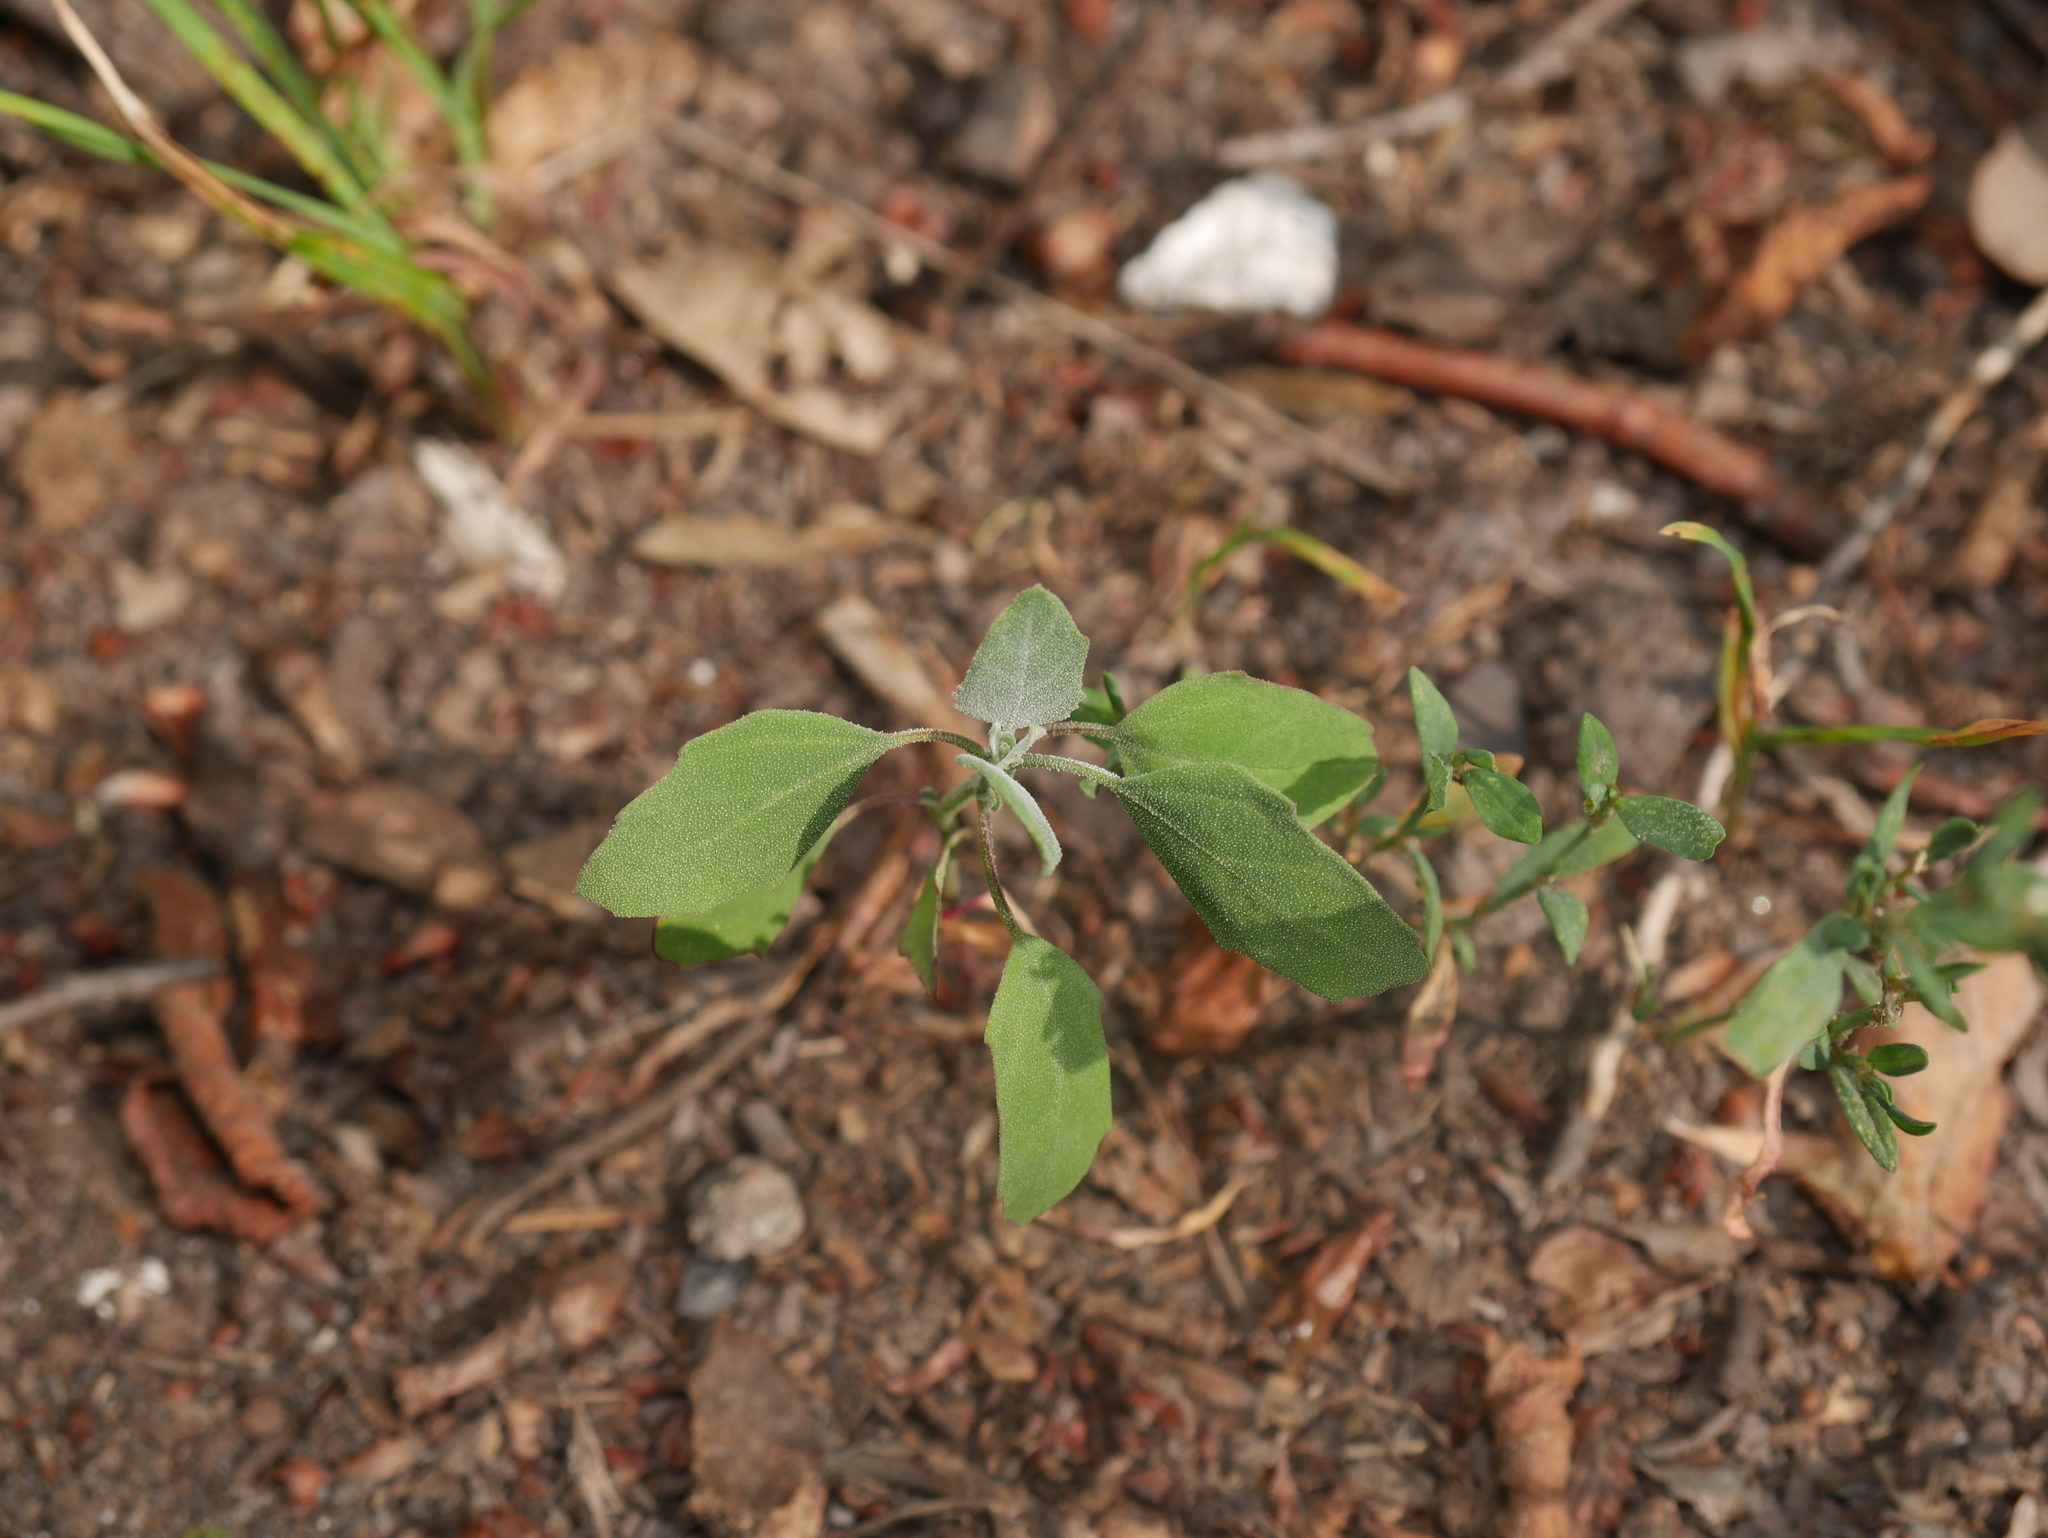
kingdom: Plantae
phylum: Tracheophyta
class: Magnoliopsida
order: Caryophyllales
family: Amaranthaceae
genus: Chenopodium
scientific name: Chenopodium album
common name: Fat-hen
